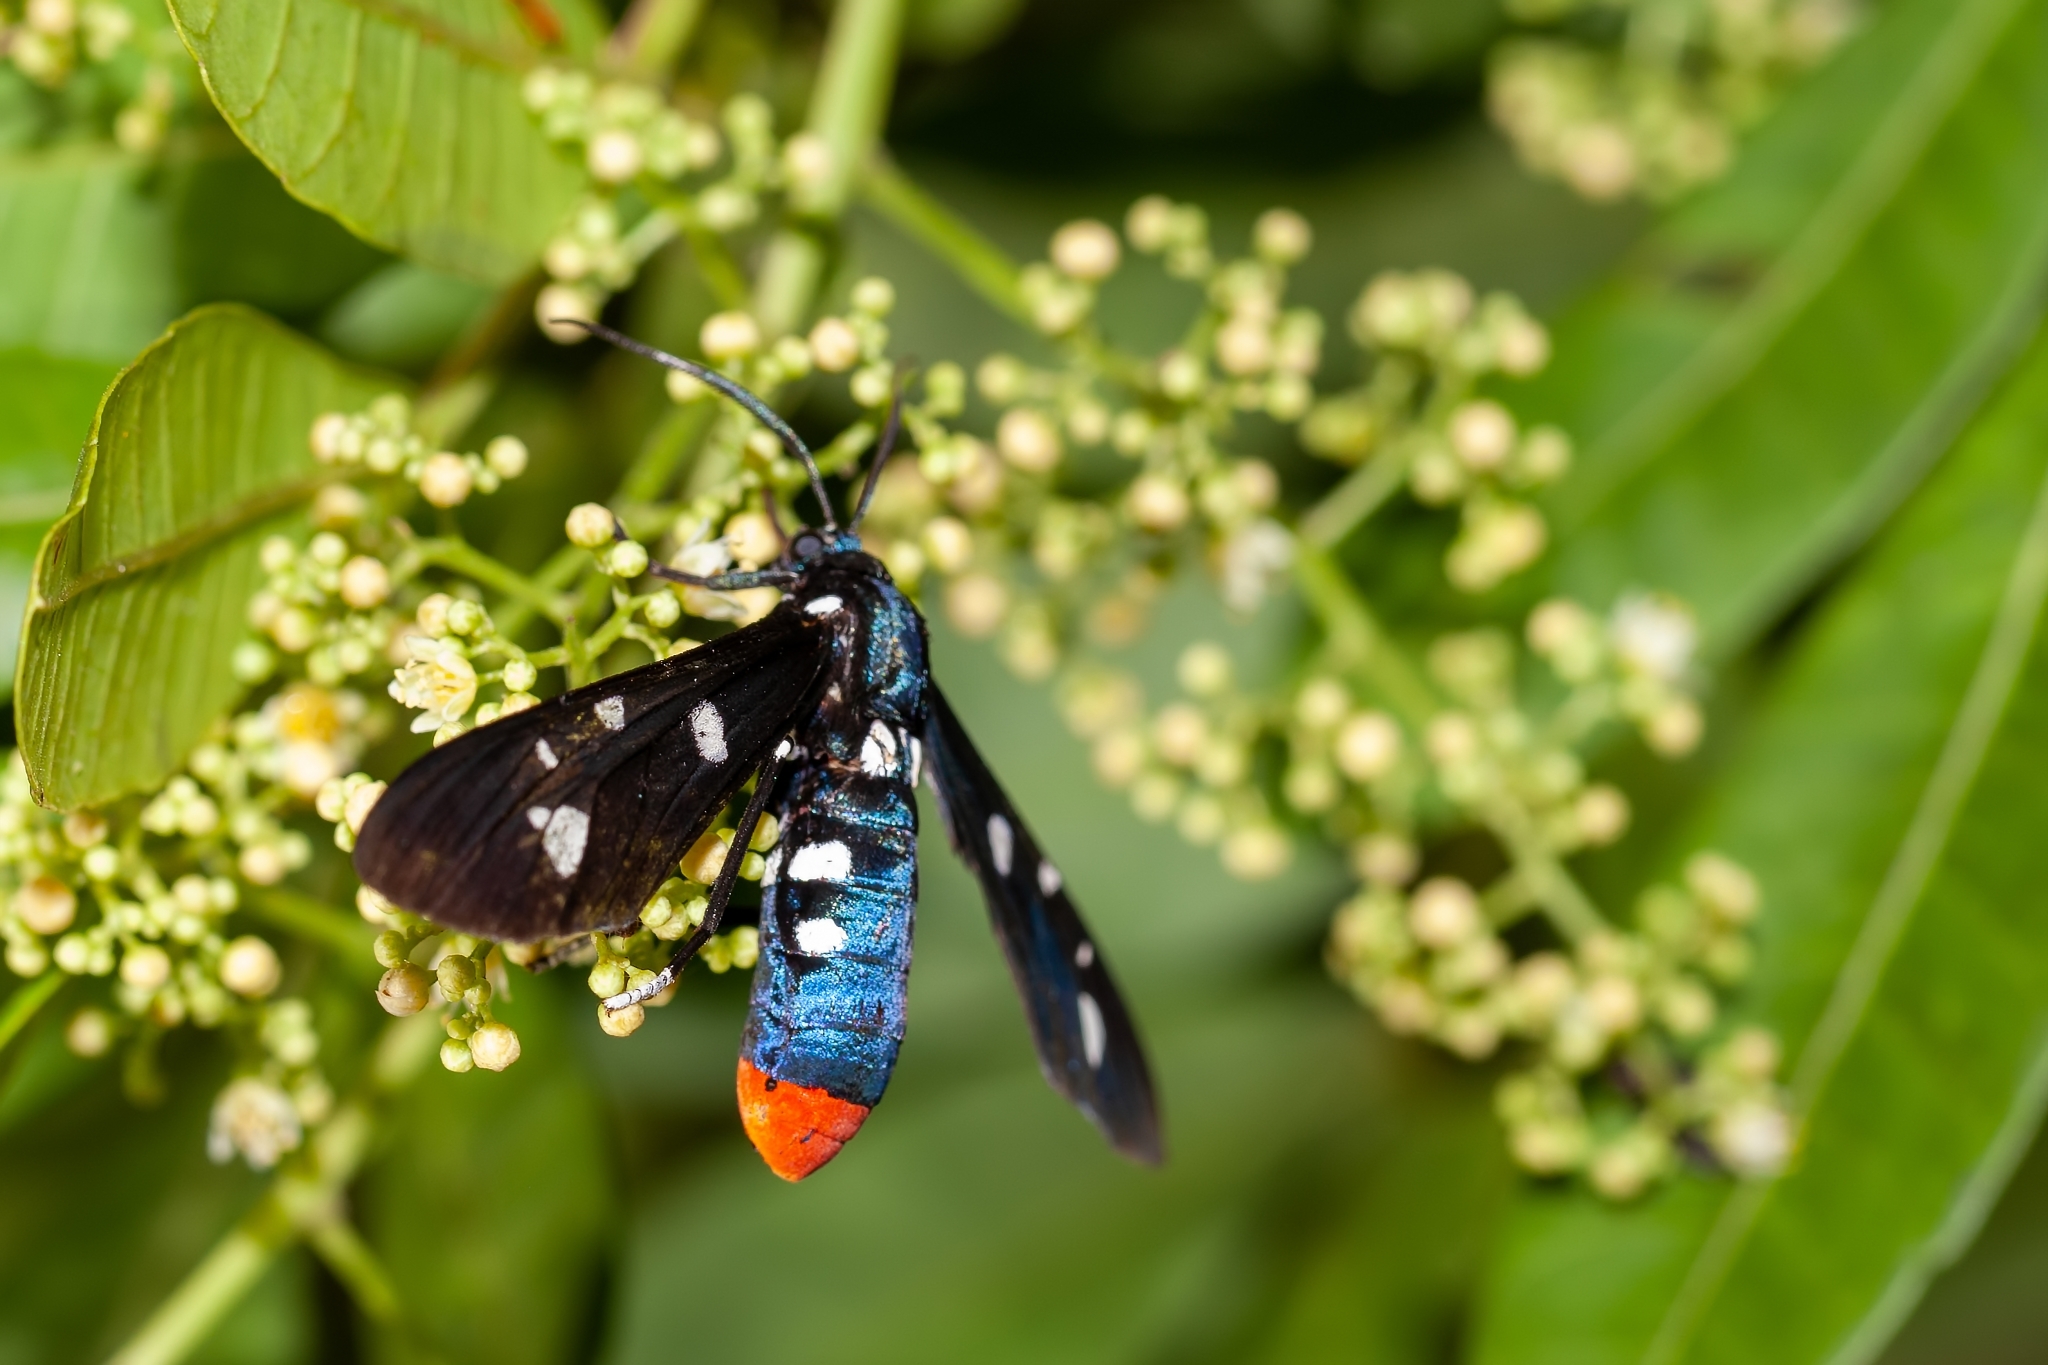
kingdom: Animalia
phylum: Arthropoda
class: Insecta
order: Lepidoptera
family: Erebidae
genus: Syntomeida
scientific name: Syntomeida epilais
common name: Polka-dot wasp moth
